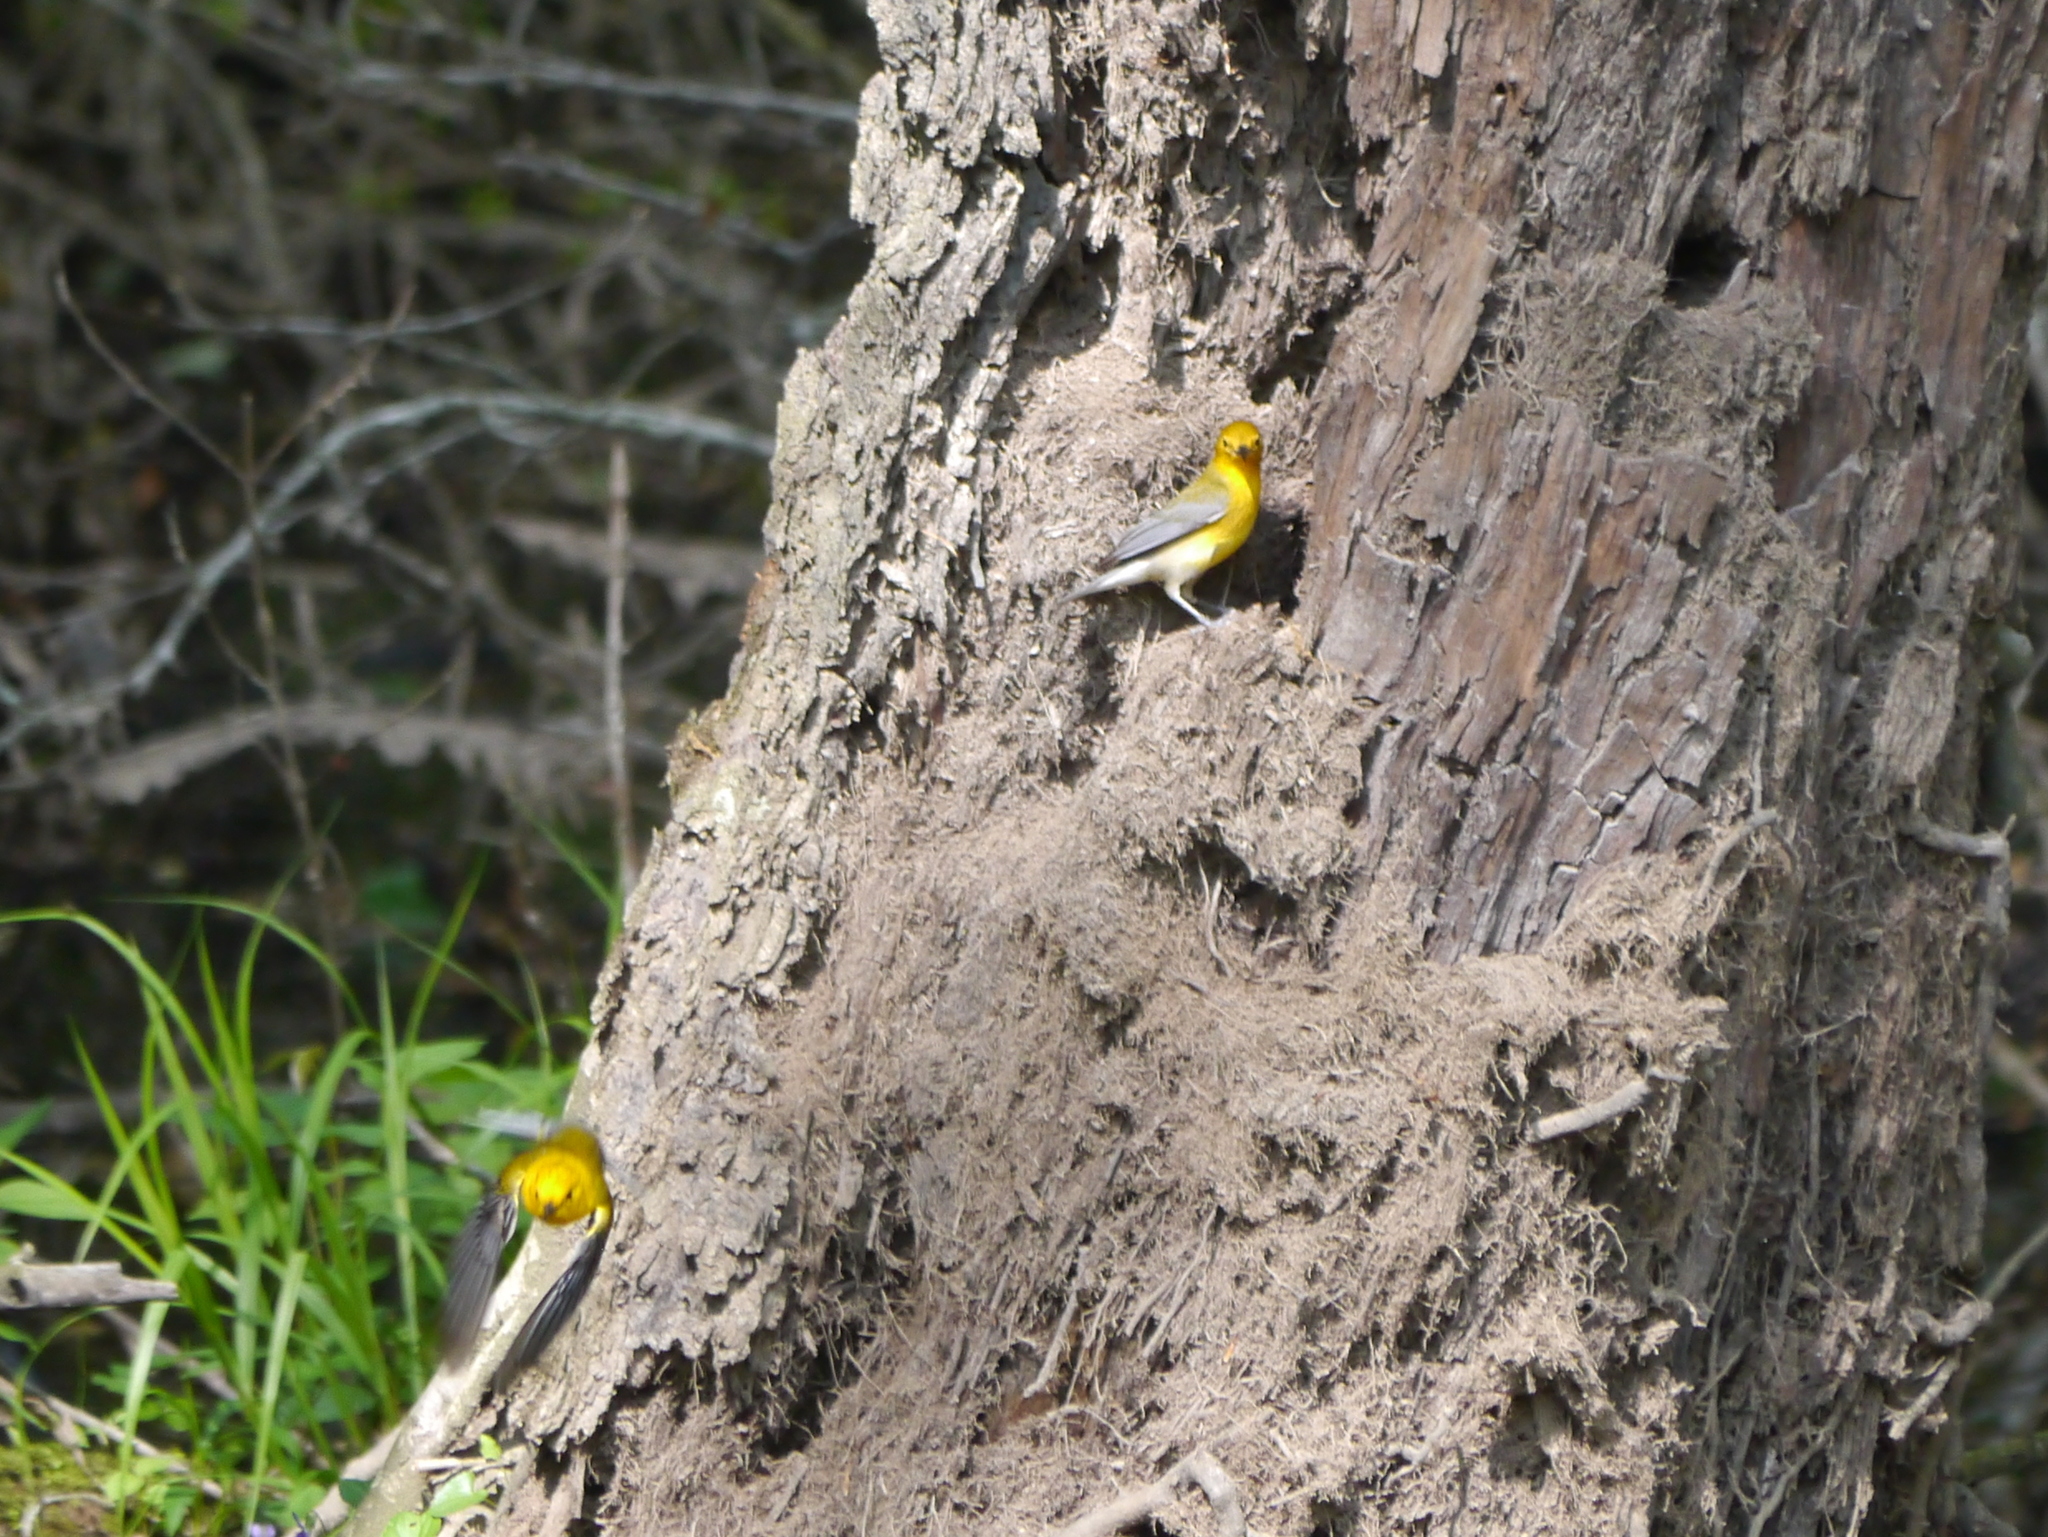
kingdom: Animalia
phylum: Chordata
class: Aves
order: Passeriformes
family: Parulidae
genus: Protonotaria
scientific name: Protonotaria citrea
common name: Prothonotary warbler
